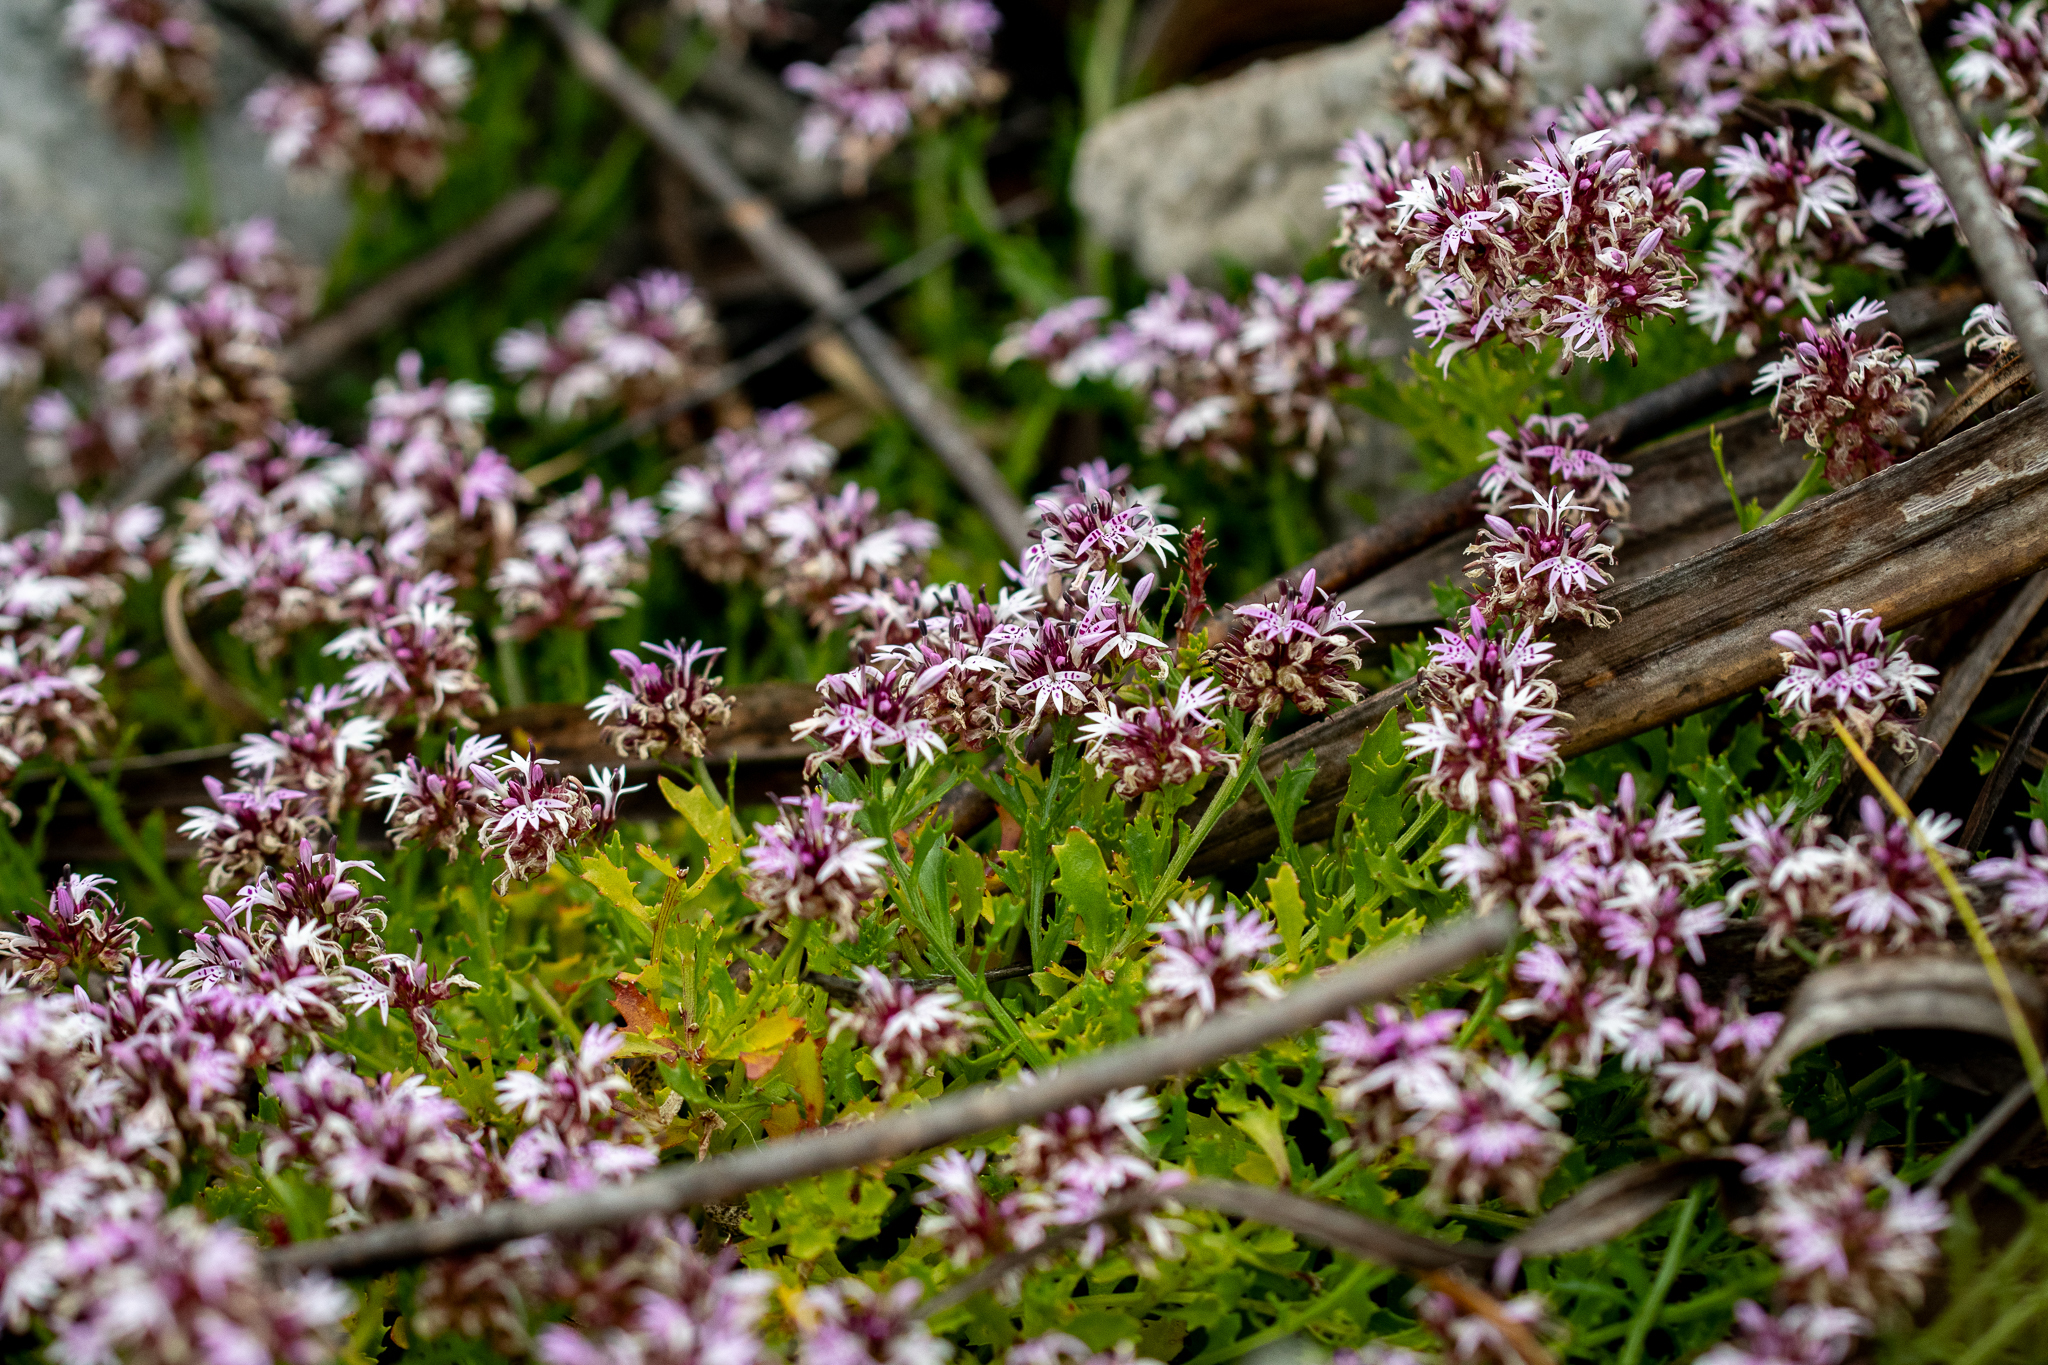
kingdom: Plantae
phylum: Tracheophyta
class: Magnoliopsida
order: Asterales
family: Campanulaceae
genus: Lobelia
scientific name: Lobelia jasionoides
